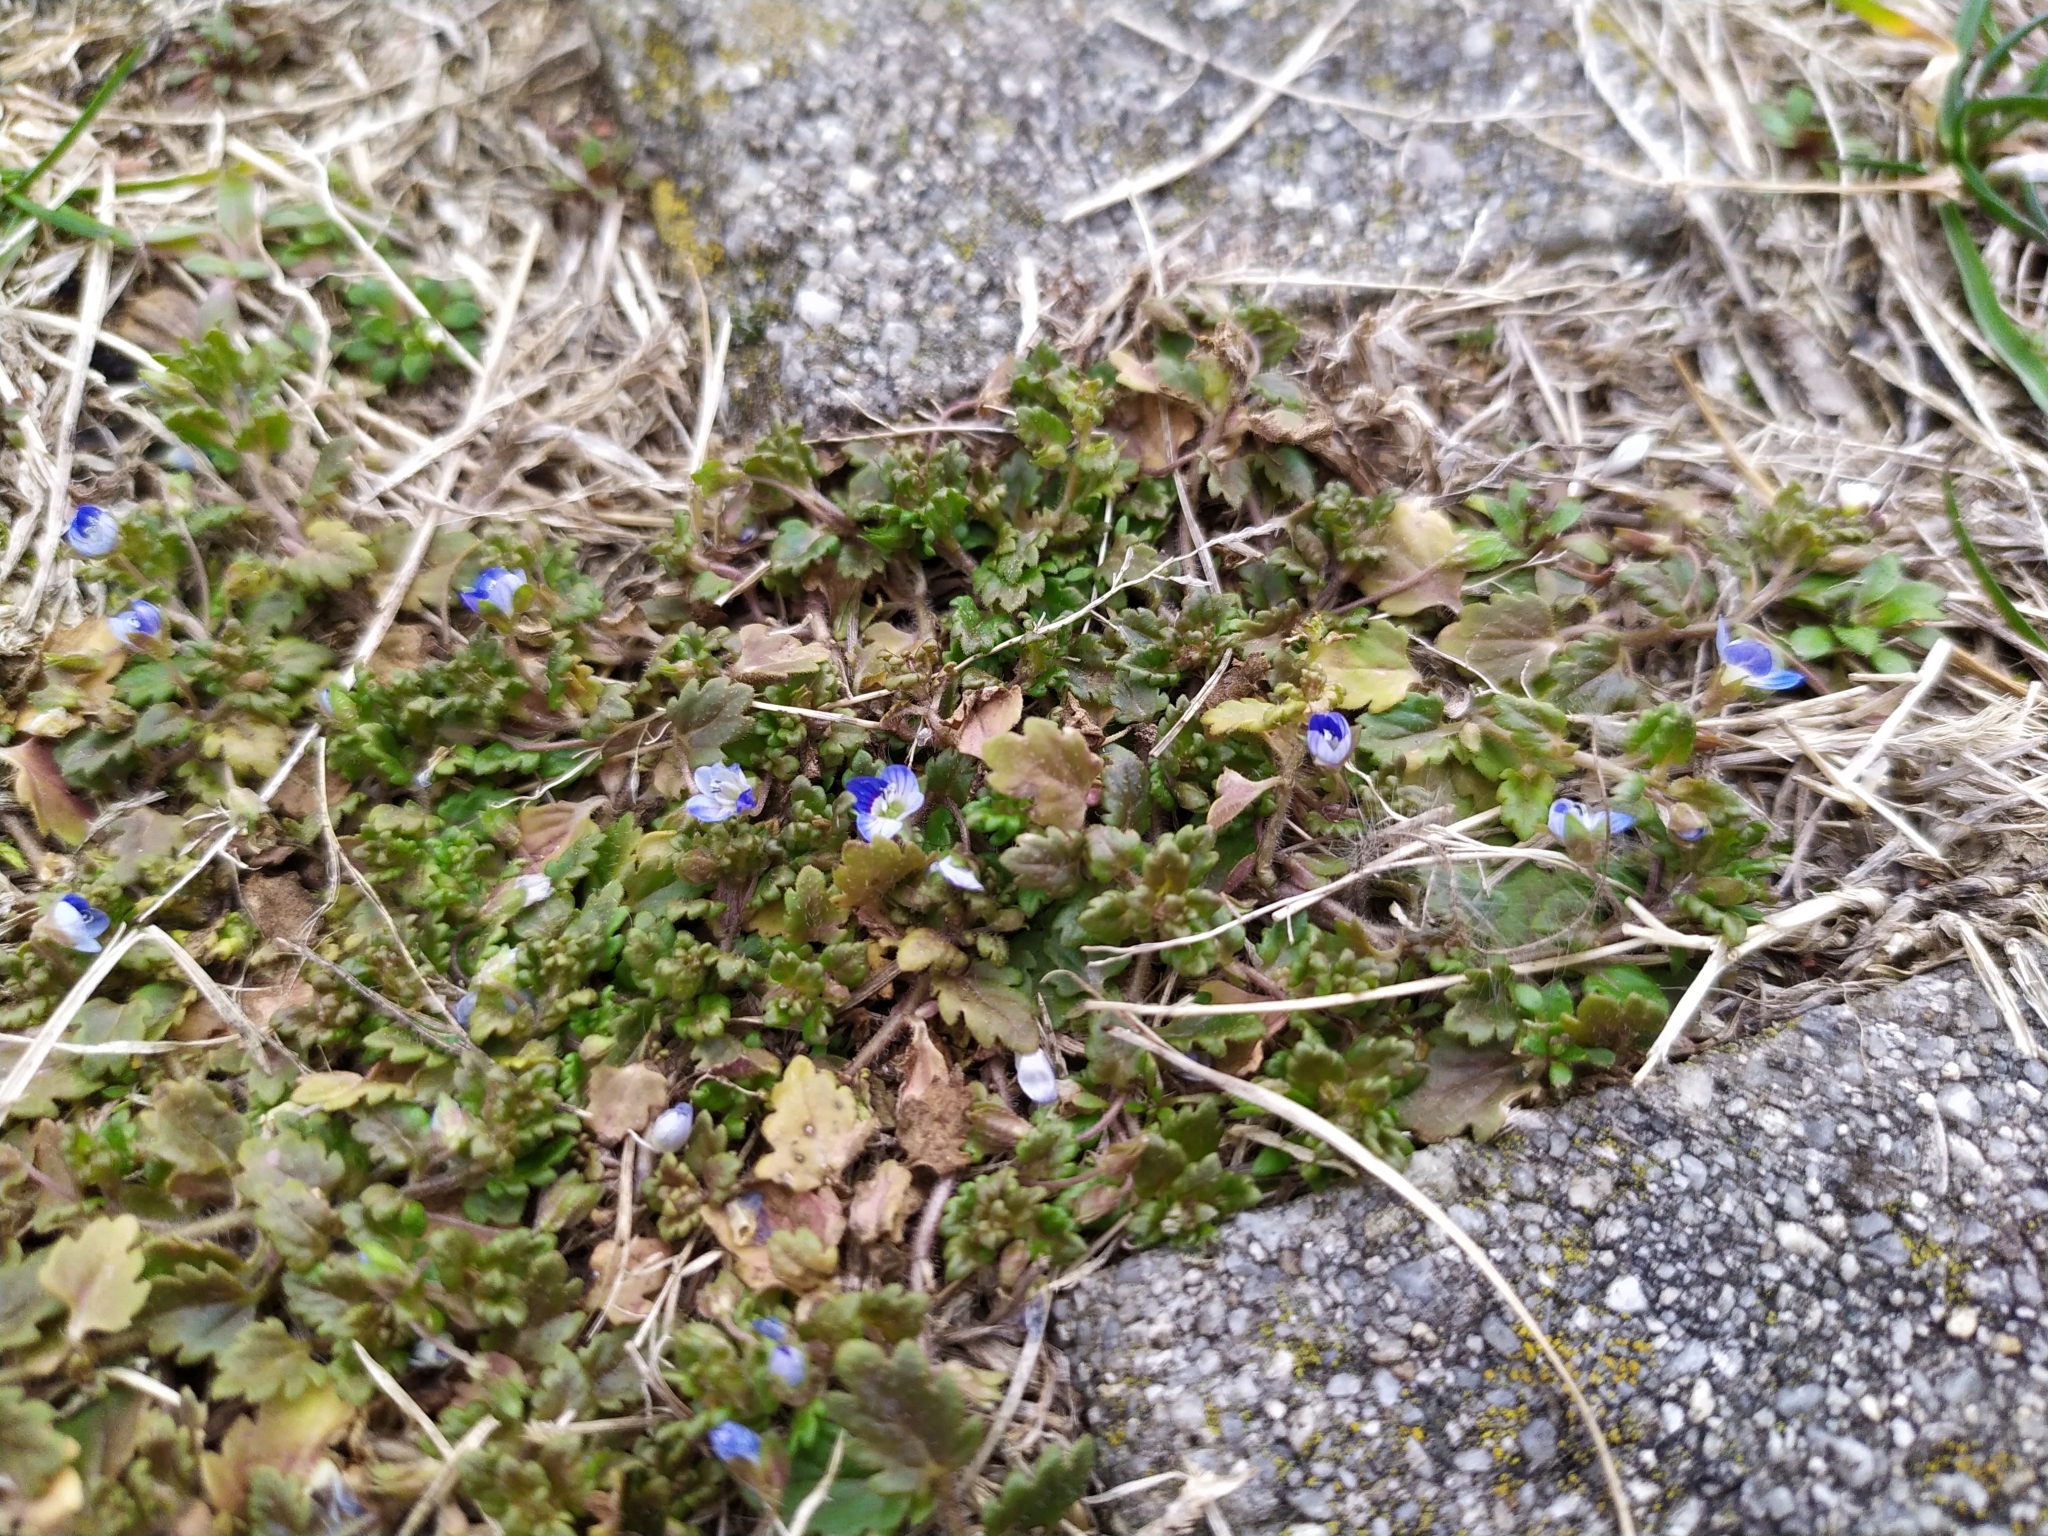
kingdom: Plantae
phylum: Tracheophyta
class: Magnoliopsida
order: Lamiales
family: Plantaginaceae
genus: Veronica
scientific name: Veronica persica
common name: Common field-speedwell
